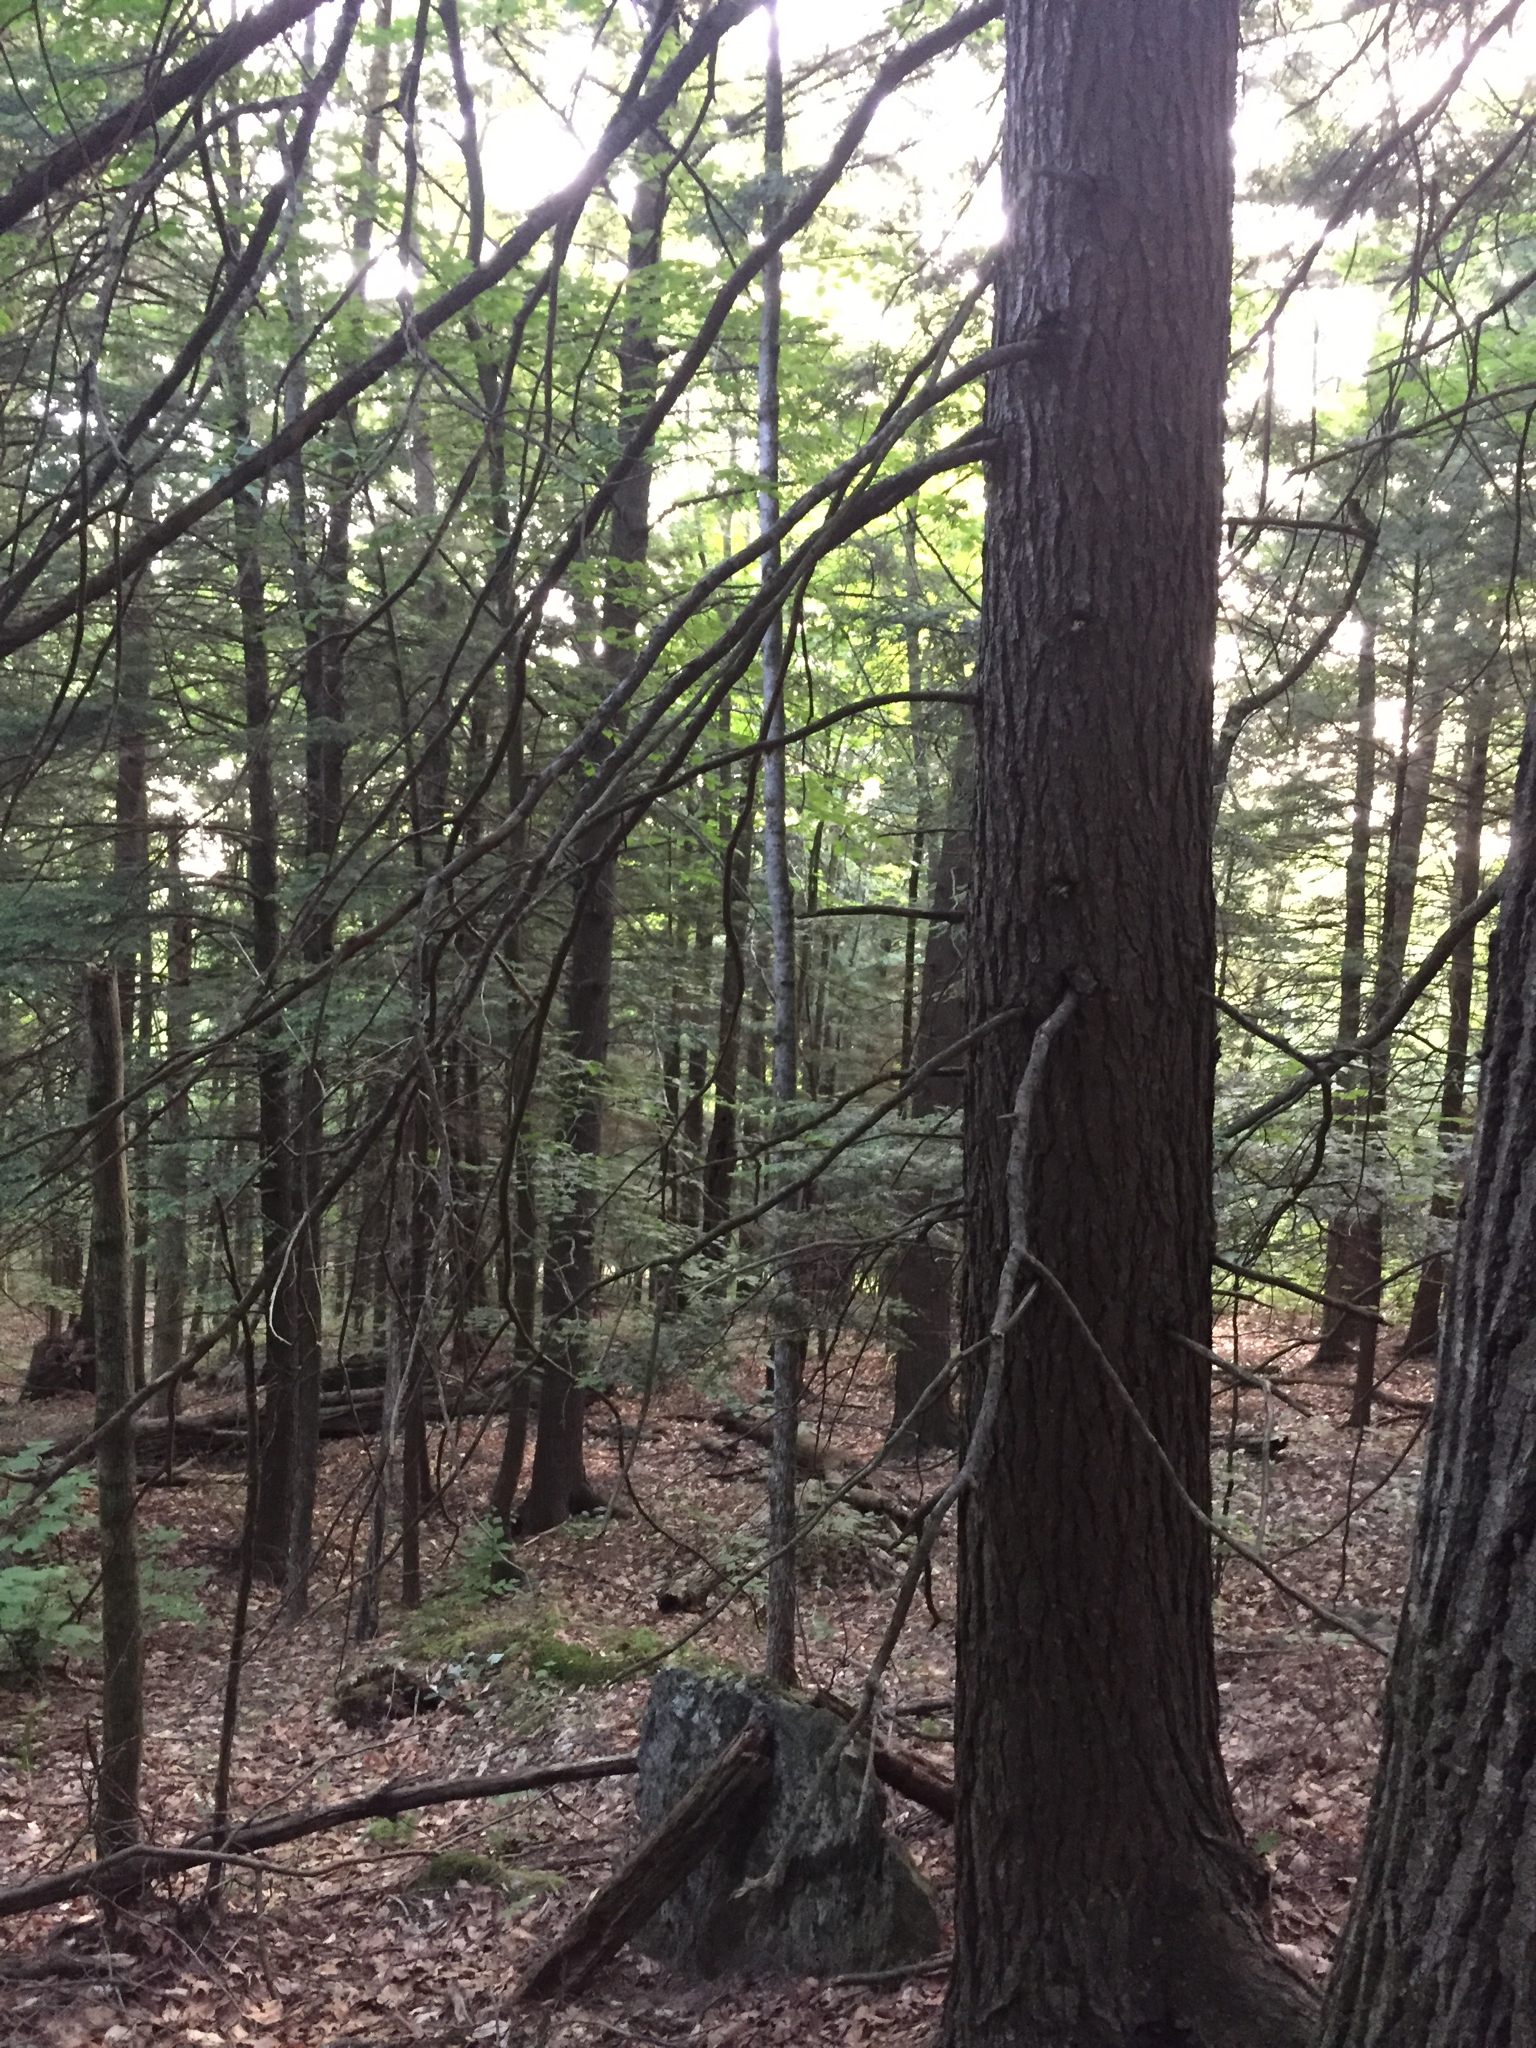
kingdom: Plantae
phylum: Tracheophyta
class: Pinopsida
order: Pinales
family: Pinaceae
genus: Tsuga
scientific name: Tsuga canadensis
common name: Eastern hemlock
